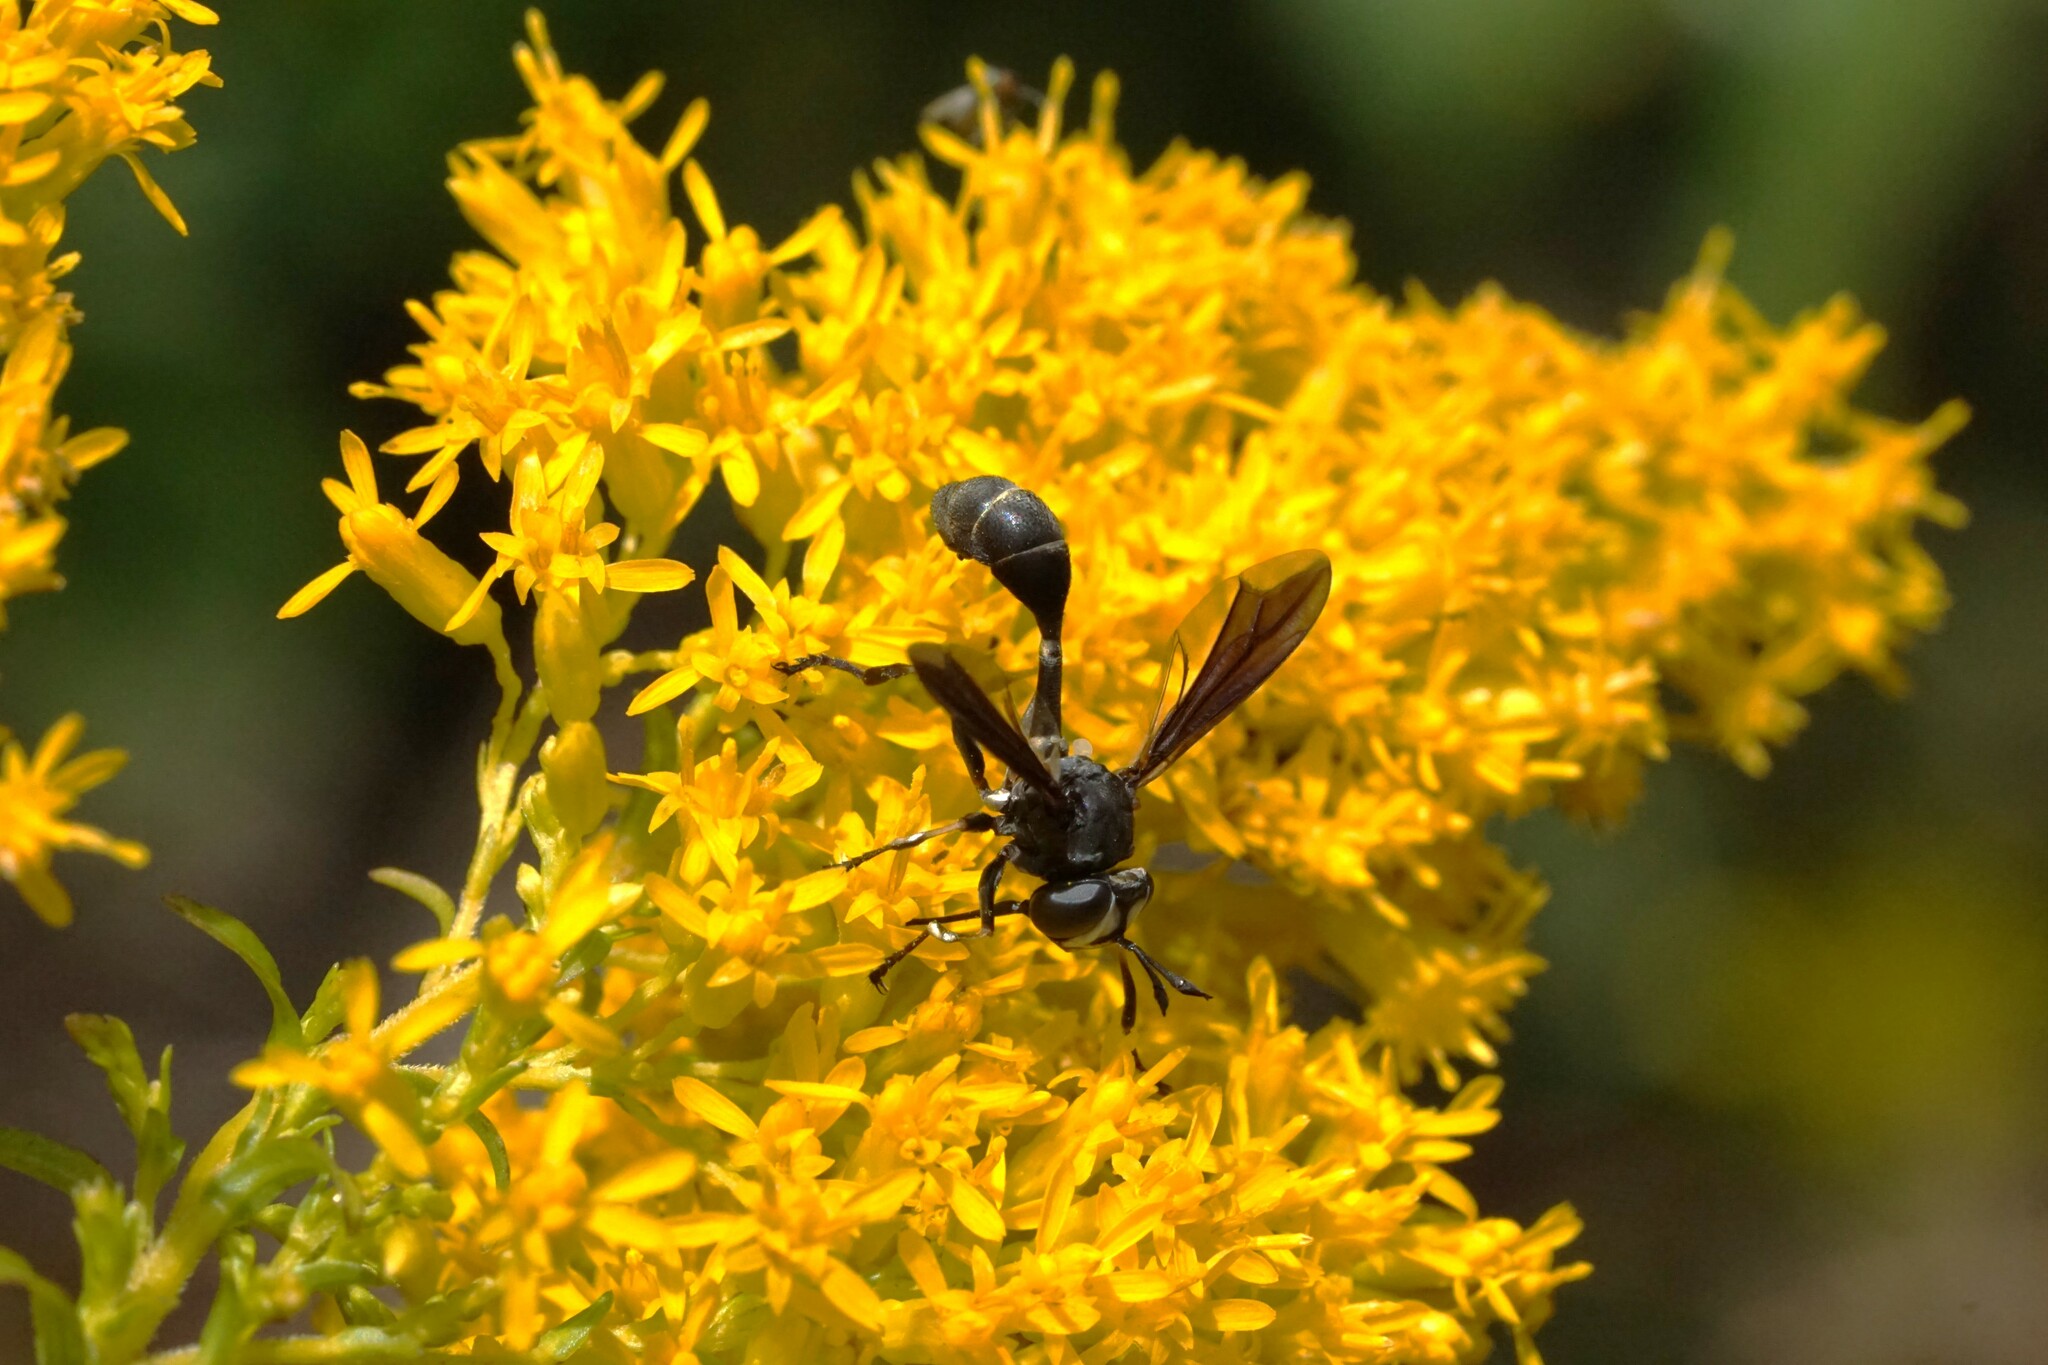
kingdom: Animalia
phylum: Arthropoda
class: Insecta
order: Diptera
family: Conopidae
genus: Physocephala
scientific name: Physocephala tibialis
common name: Common eastern physocephala
